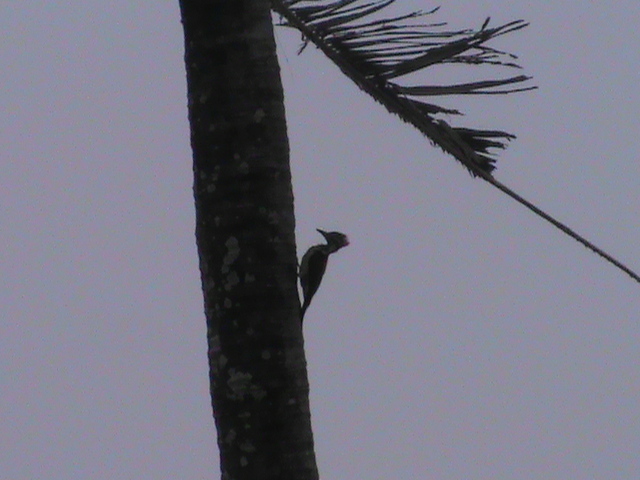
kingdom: Animalia
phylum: Chordata
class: Aves
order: Piciformes
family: Picidae
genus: Dinopium
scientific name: Dinopium benghalense
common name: Black-rumped flameback
